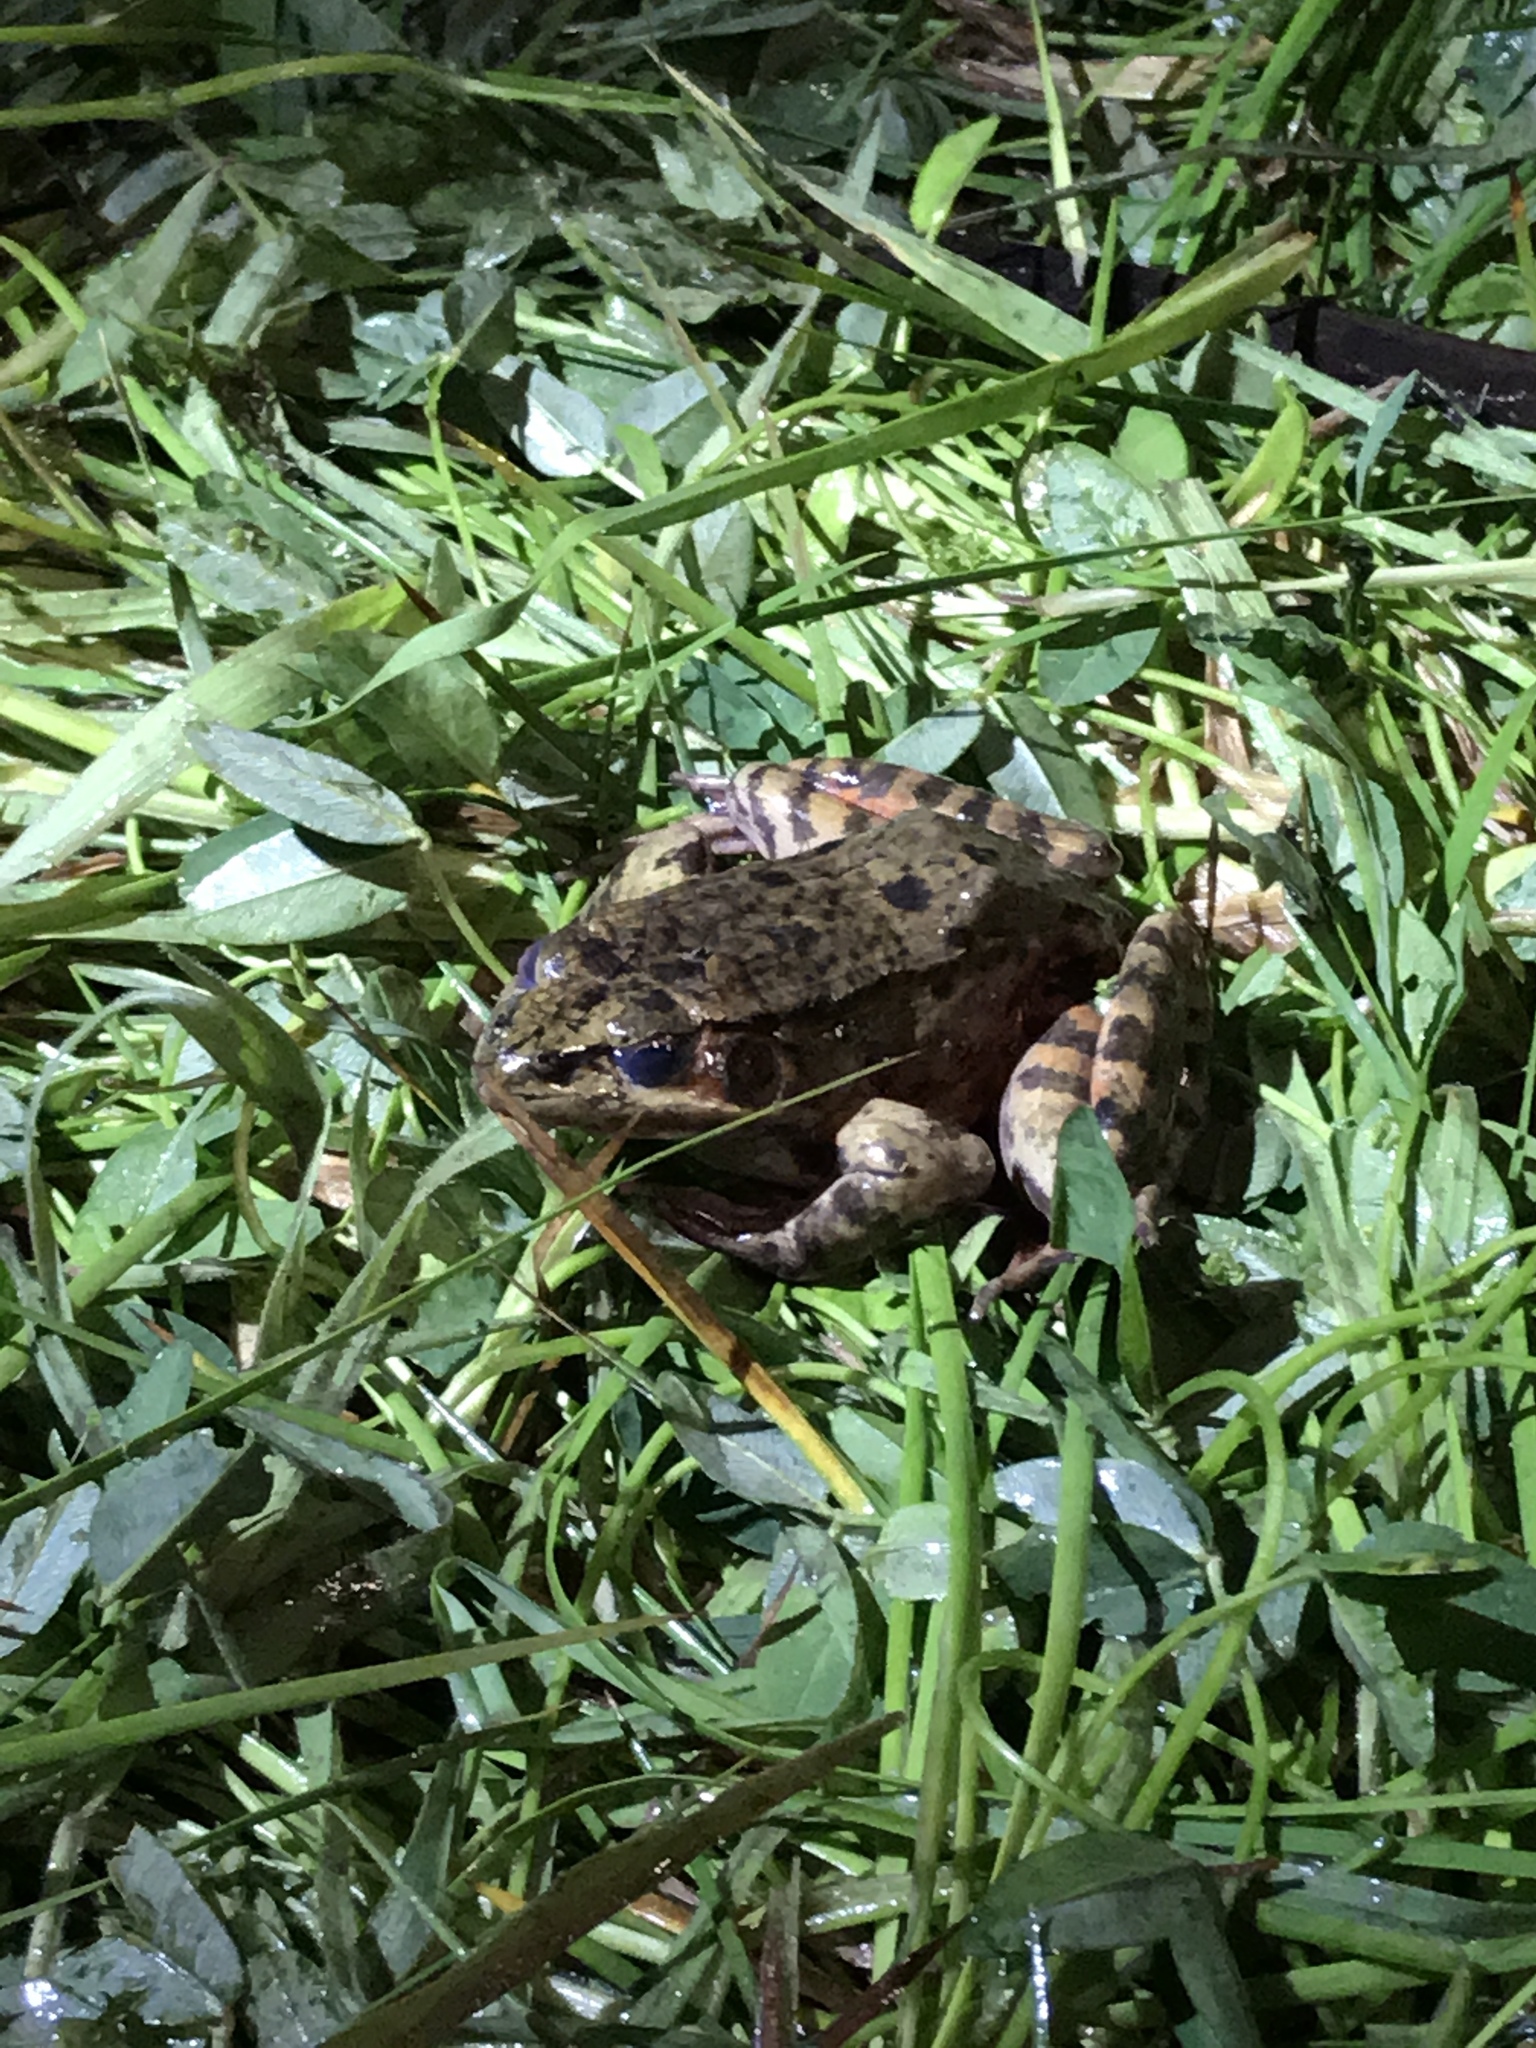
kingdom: Animalia
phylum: Chordata
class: Amphibia
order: Anura
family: Ranidae
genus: Rana
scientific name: Rana draytonii
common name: California red-legged frog
